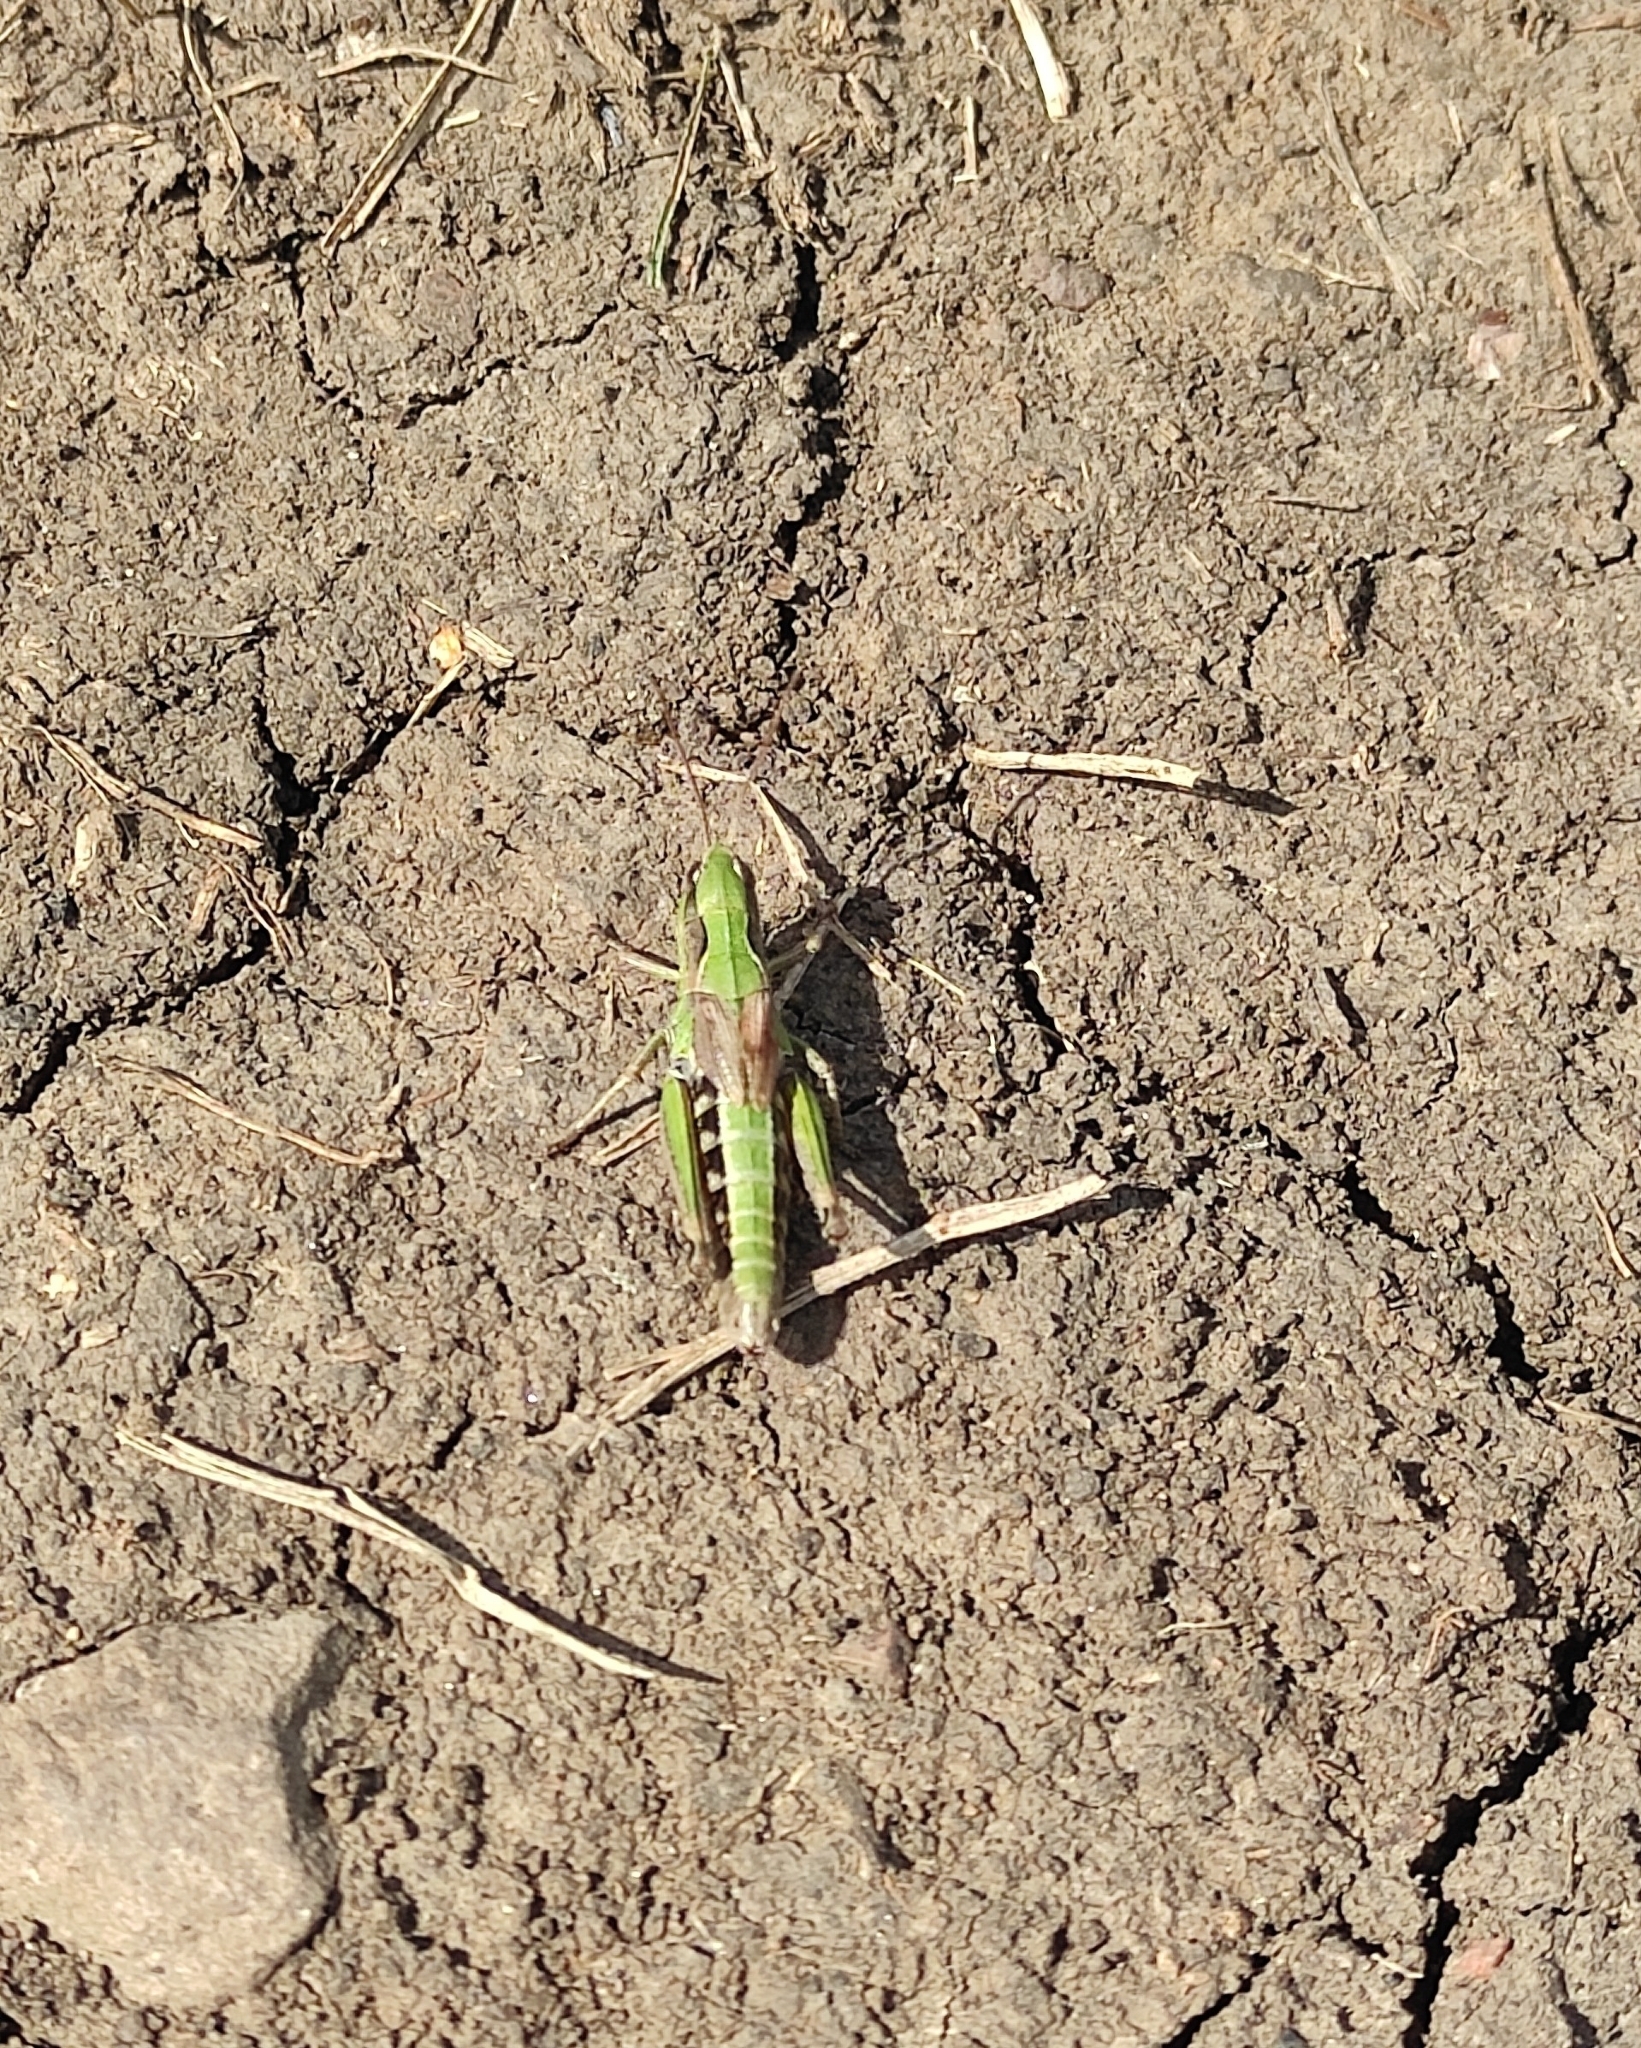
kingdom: Animalia
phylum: Arthropoda
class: Insecta
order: Orthoptera
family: Acrididae
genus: Chorthippus
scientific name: Chorthippus fallax
